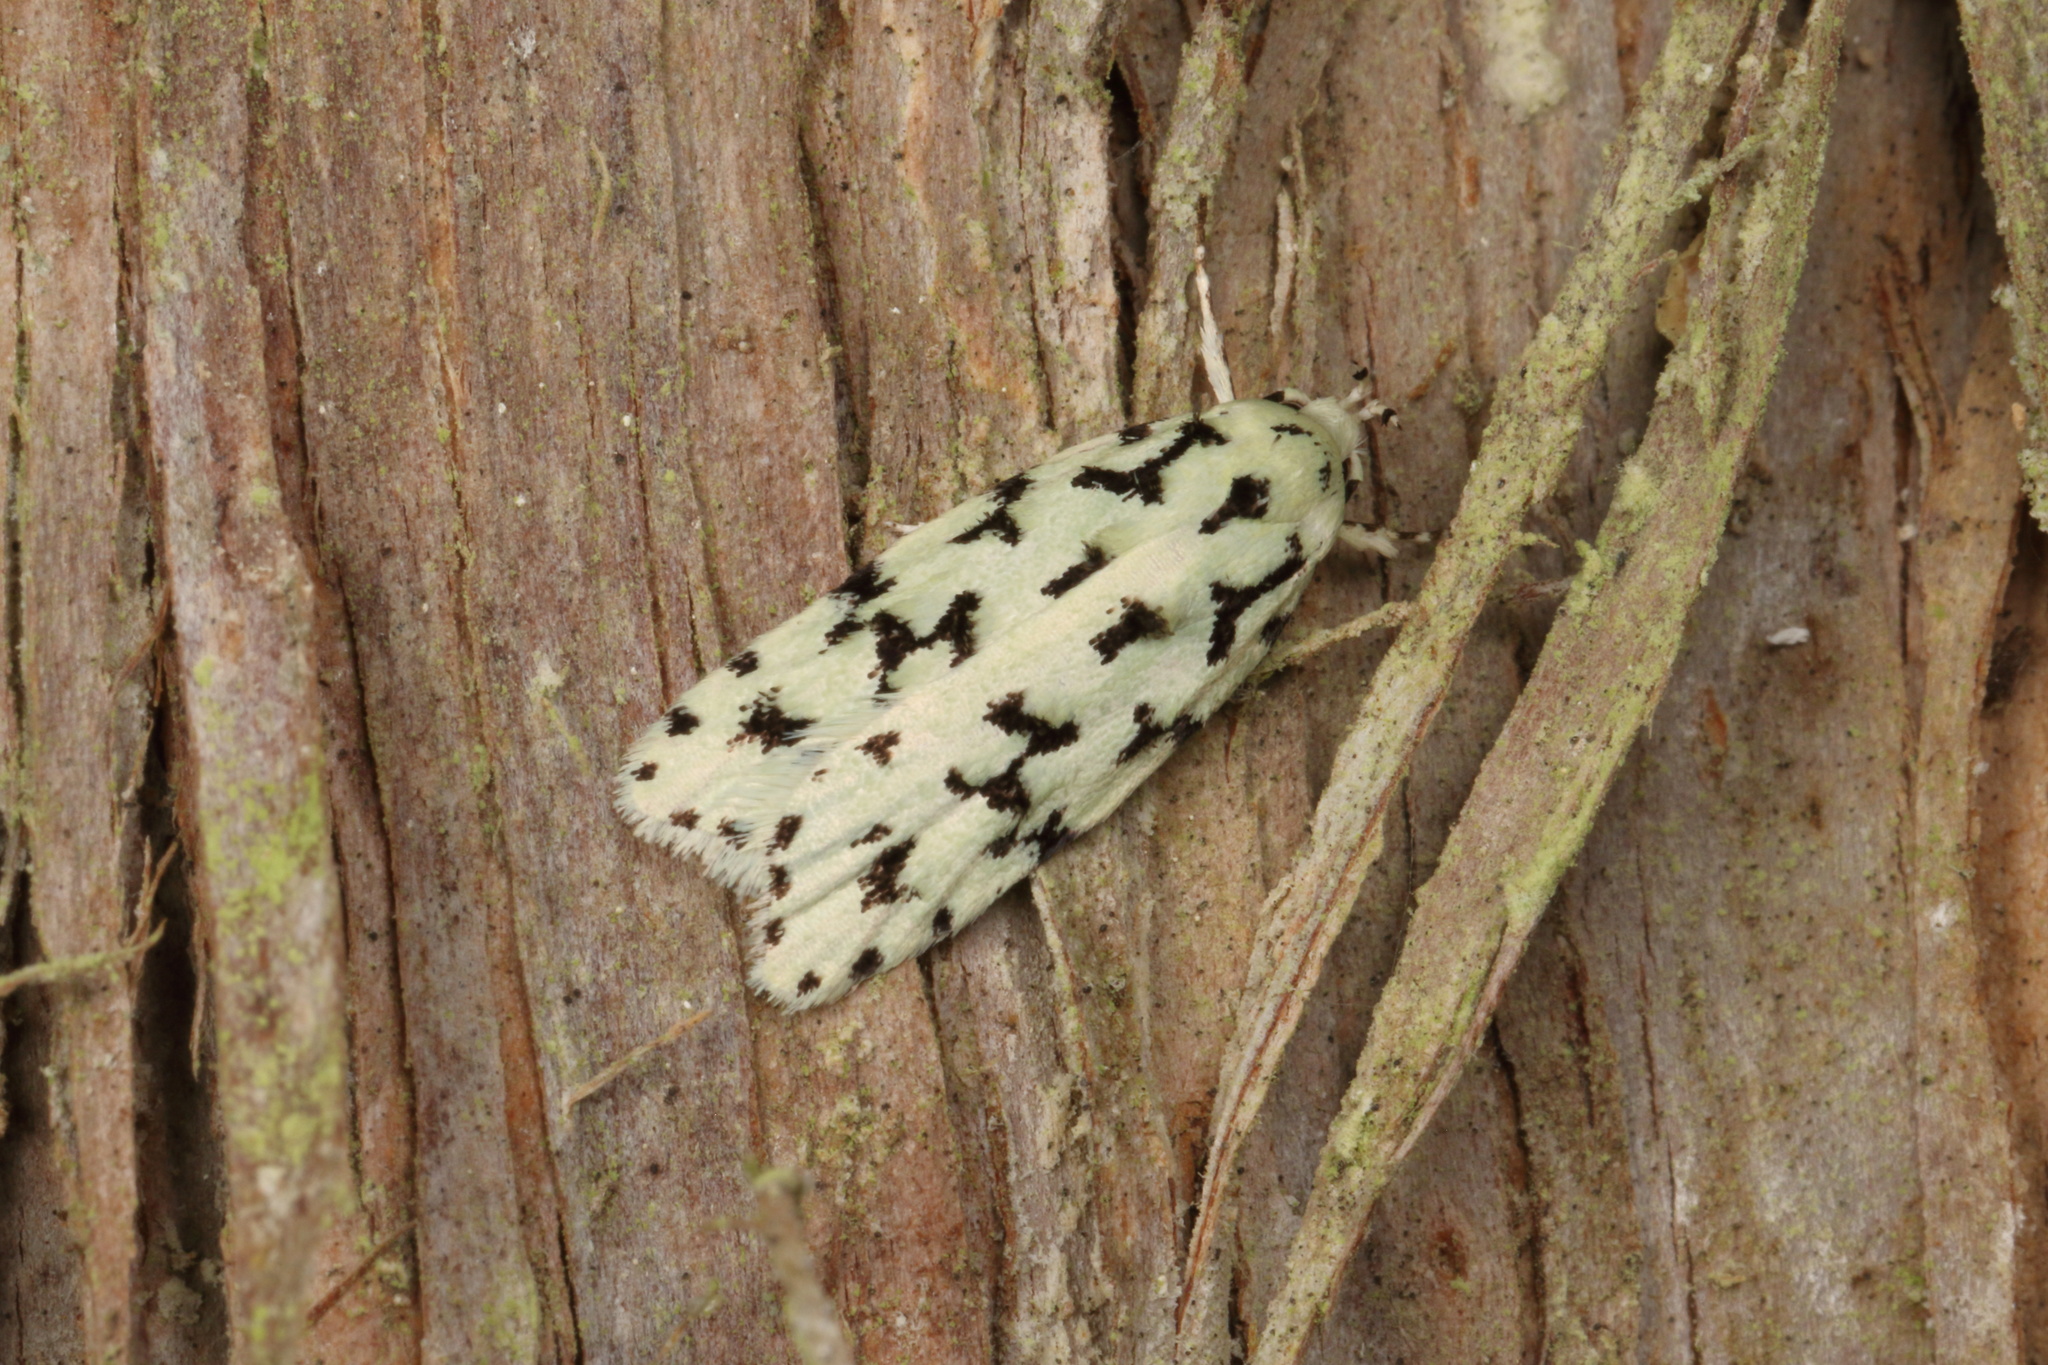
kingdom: Animalia
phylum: Arthropoda
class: Insecta
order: Lepidoptera
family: Oecophoridae
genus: Izatha
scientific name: Izatha huttoni
